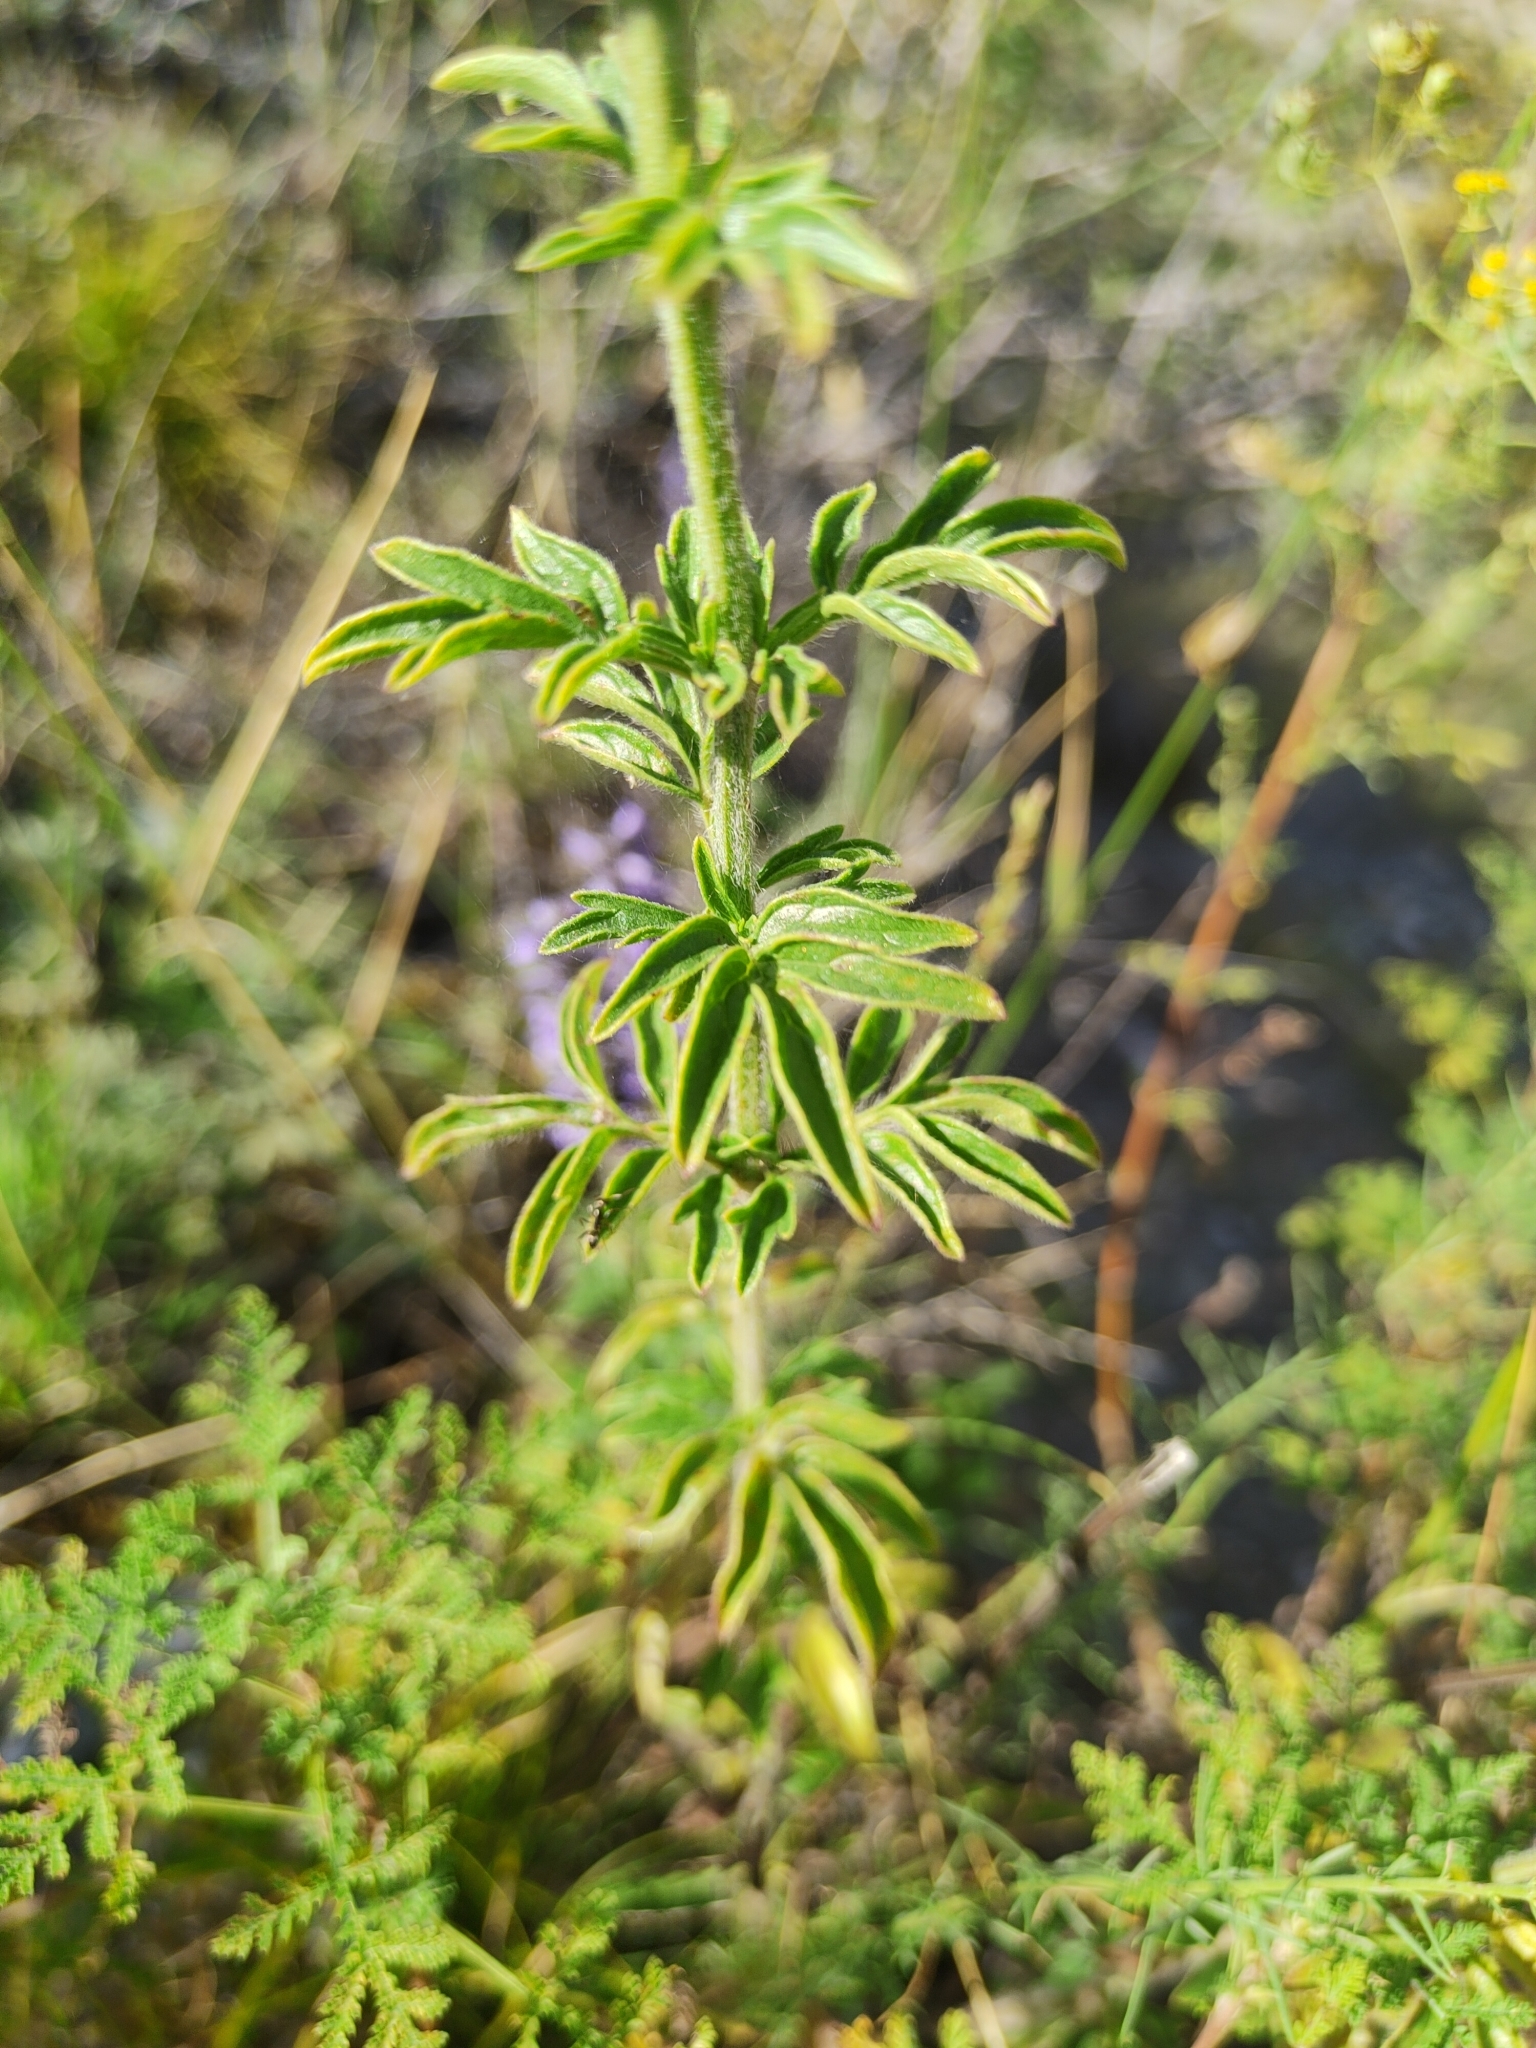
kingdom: Plantae
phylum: Tracheophyta
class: Magnoliopsida
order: Lamiales
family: Lamiaceae
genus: Nepeta
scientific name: Nepeta multifida
